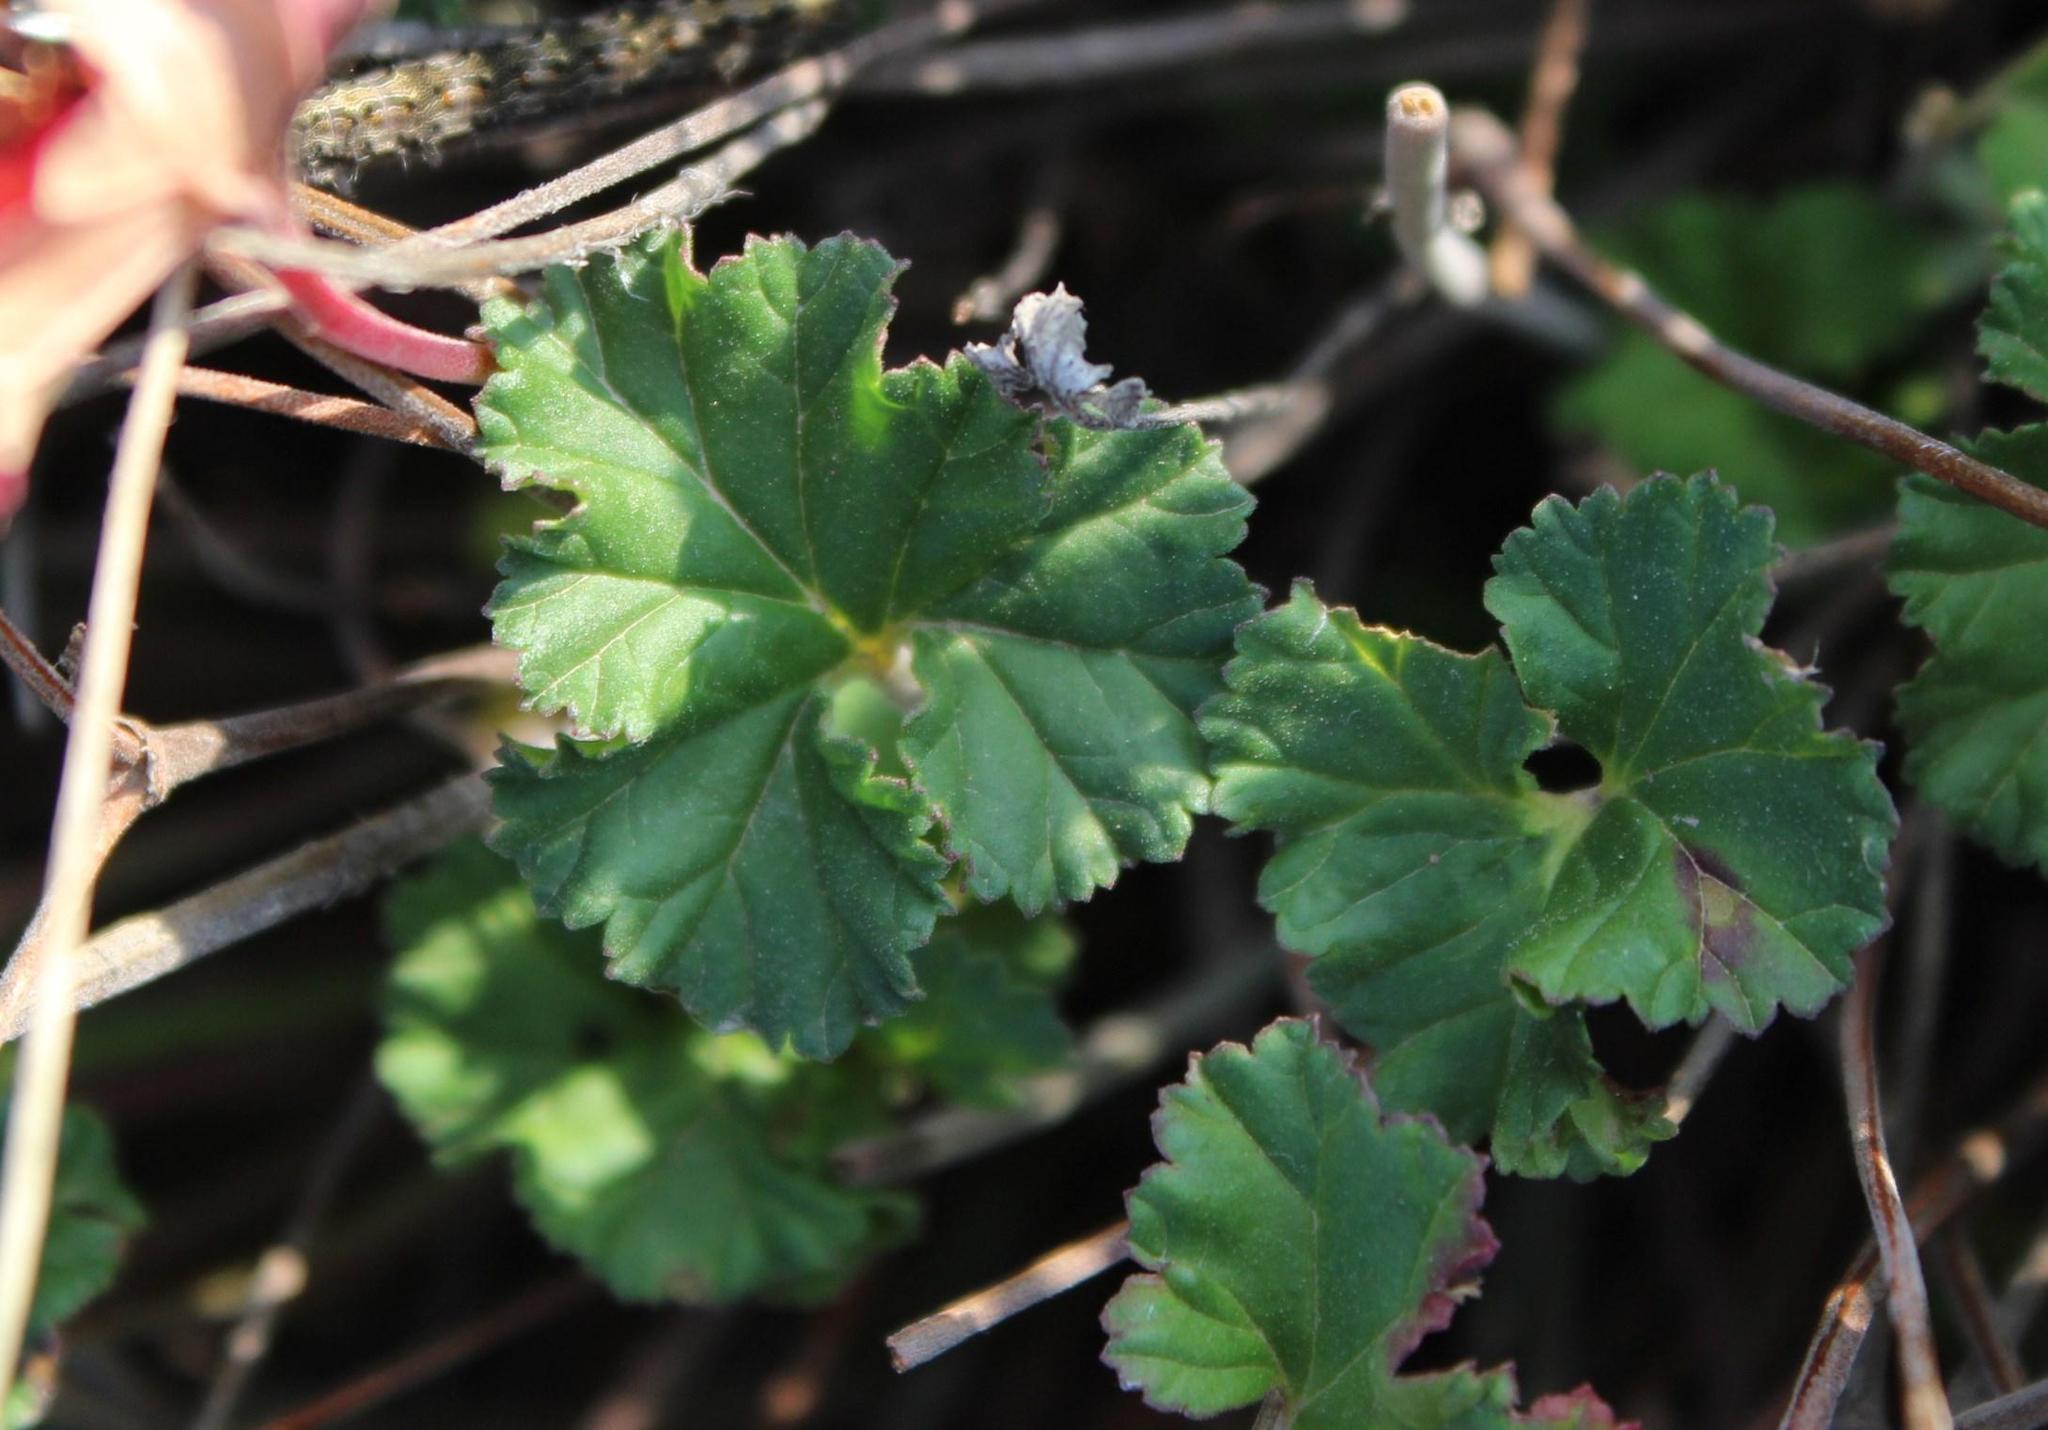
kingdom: Plantae
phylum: Tracheophyta
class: Magnoliopsida
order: Geraniales
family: Geraniaceae
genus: Pelargonium
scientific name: Pelargonium hypoleucum
